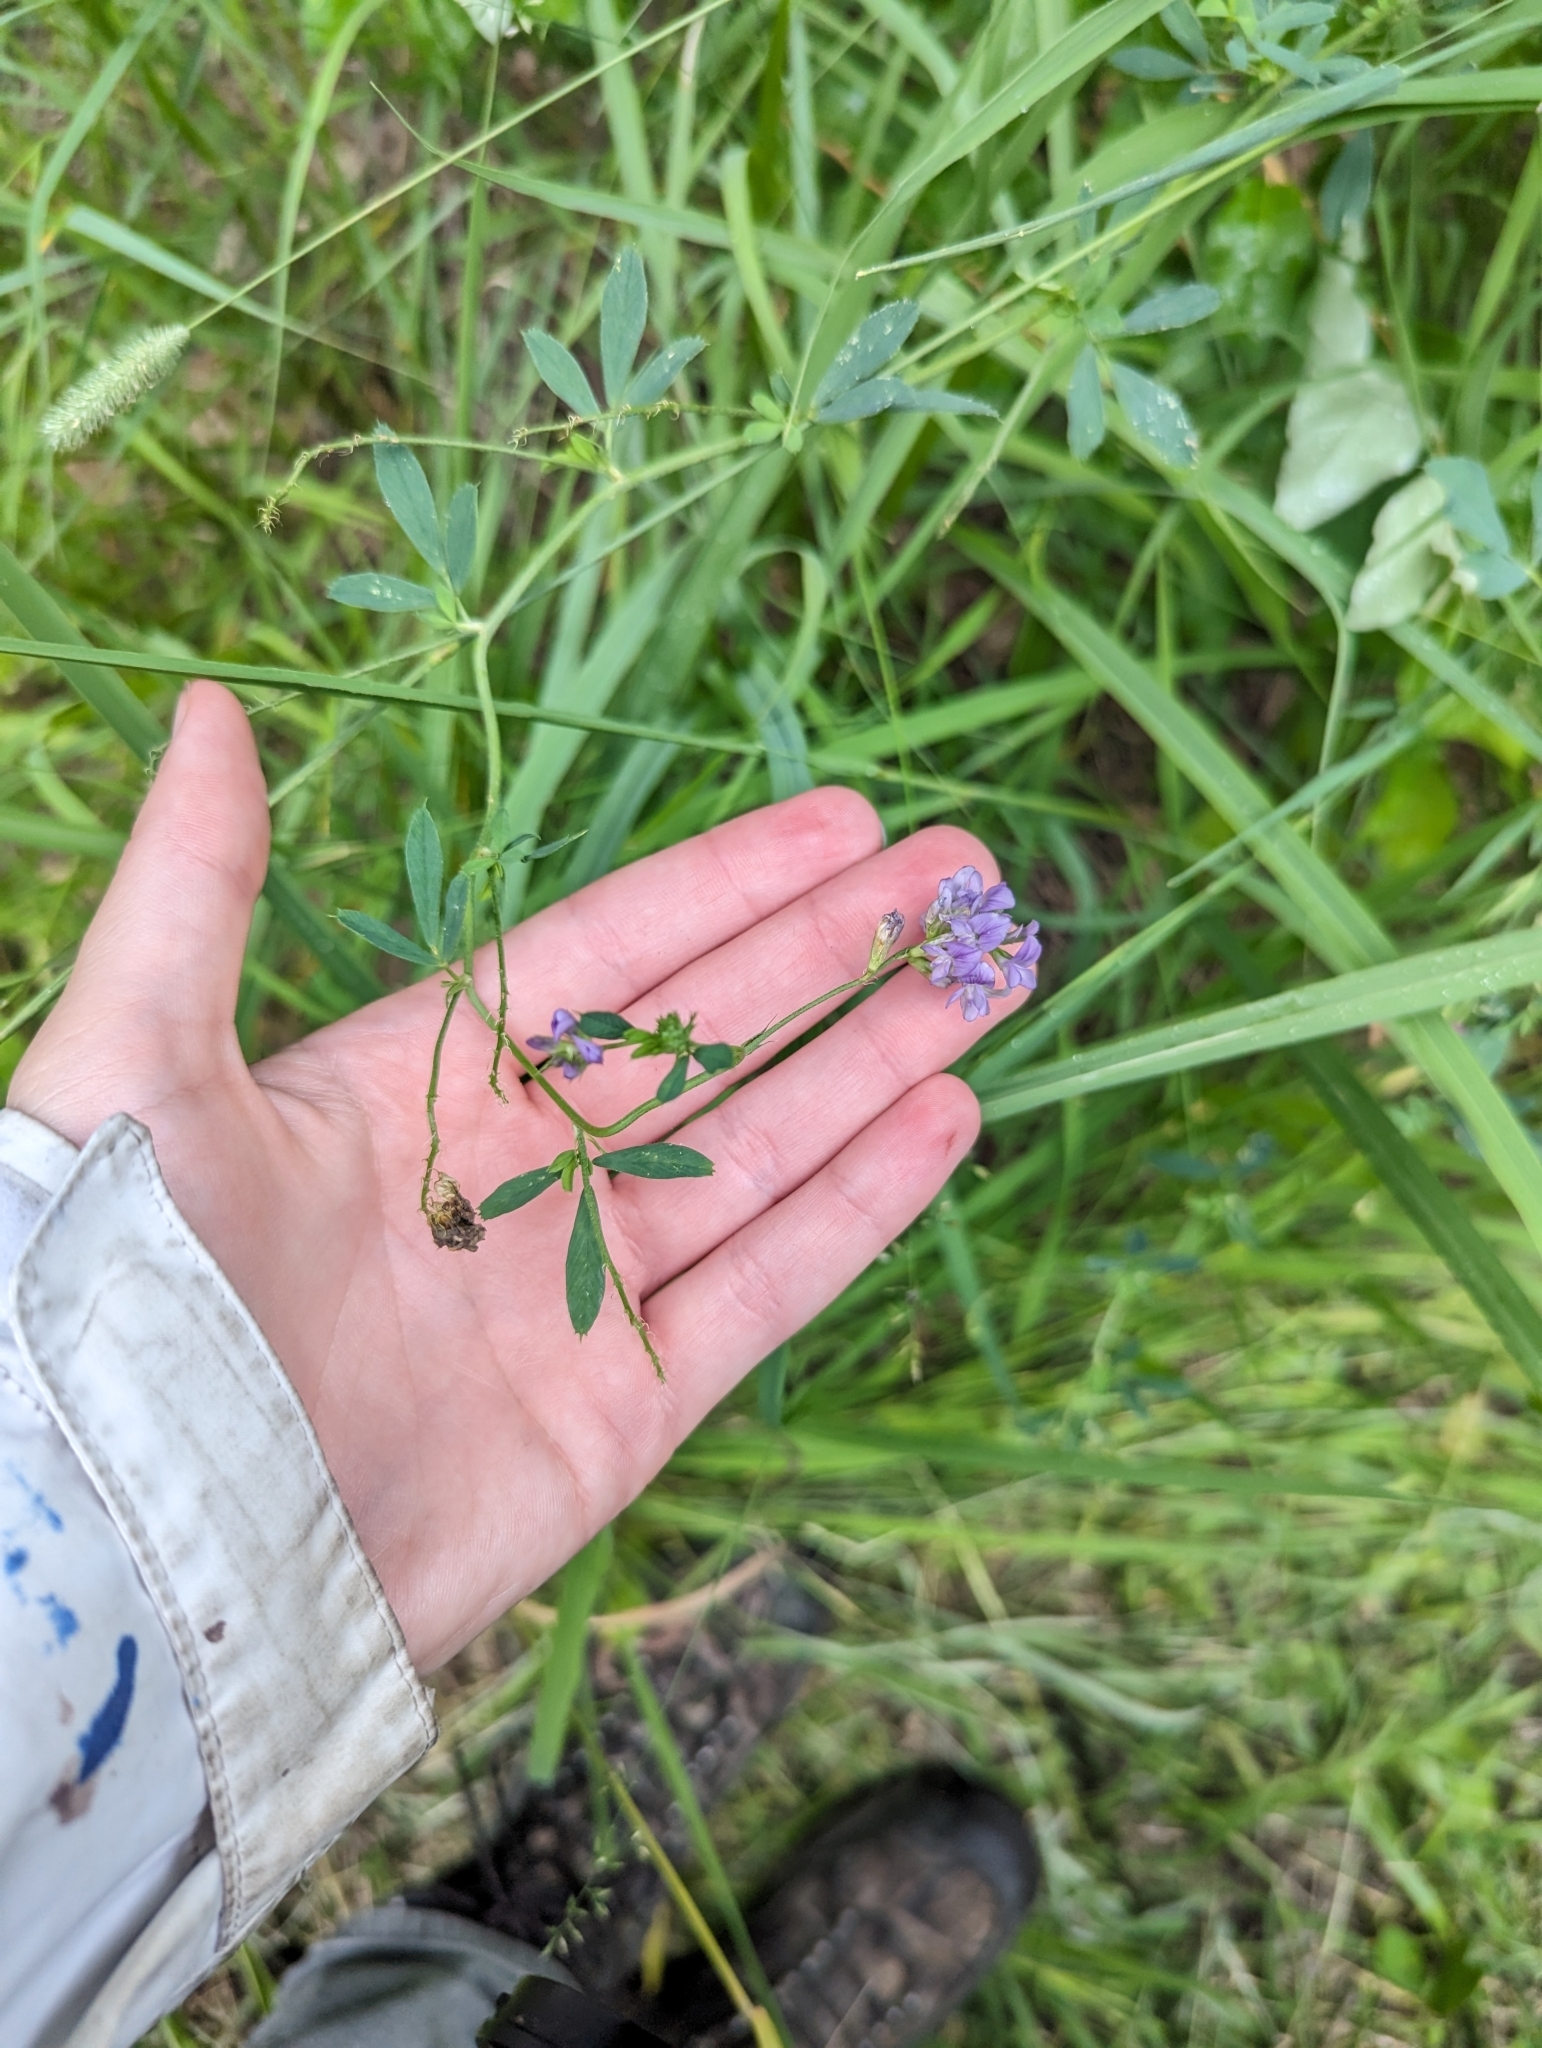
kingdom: Plantae
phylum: Tracheophyta
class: Magnoliopsida
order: Fabales
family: Fabaceae
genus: Medicago
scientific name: Medicago sativa
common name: Alfalfa
